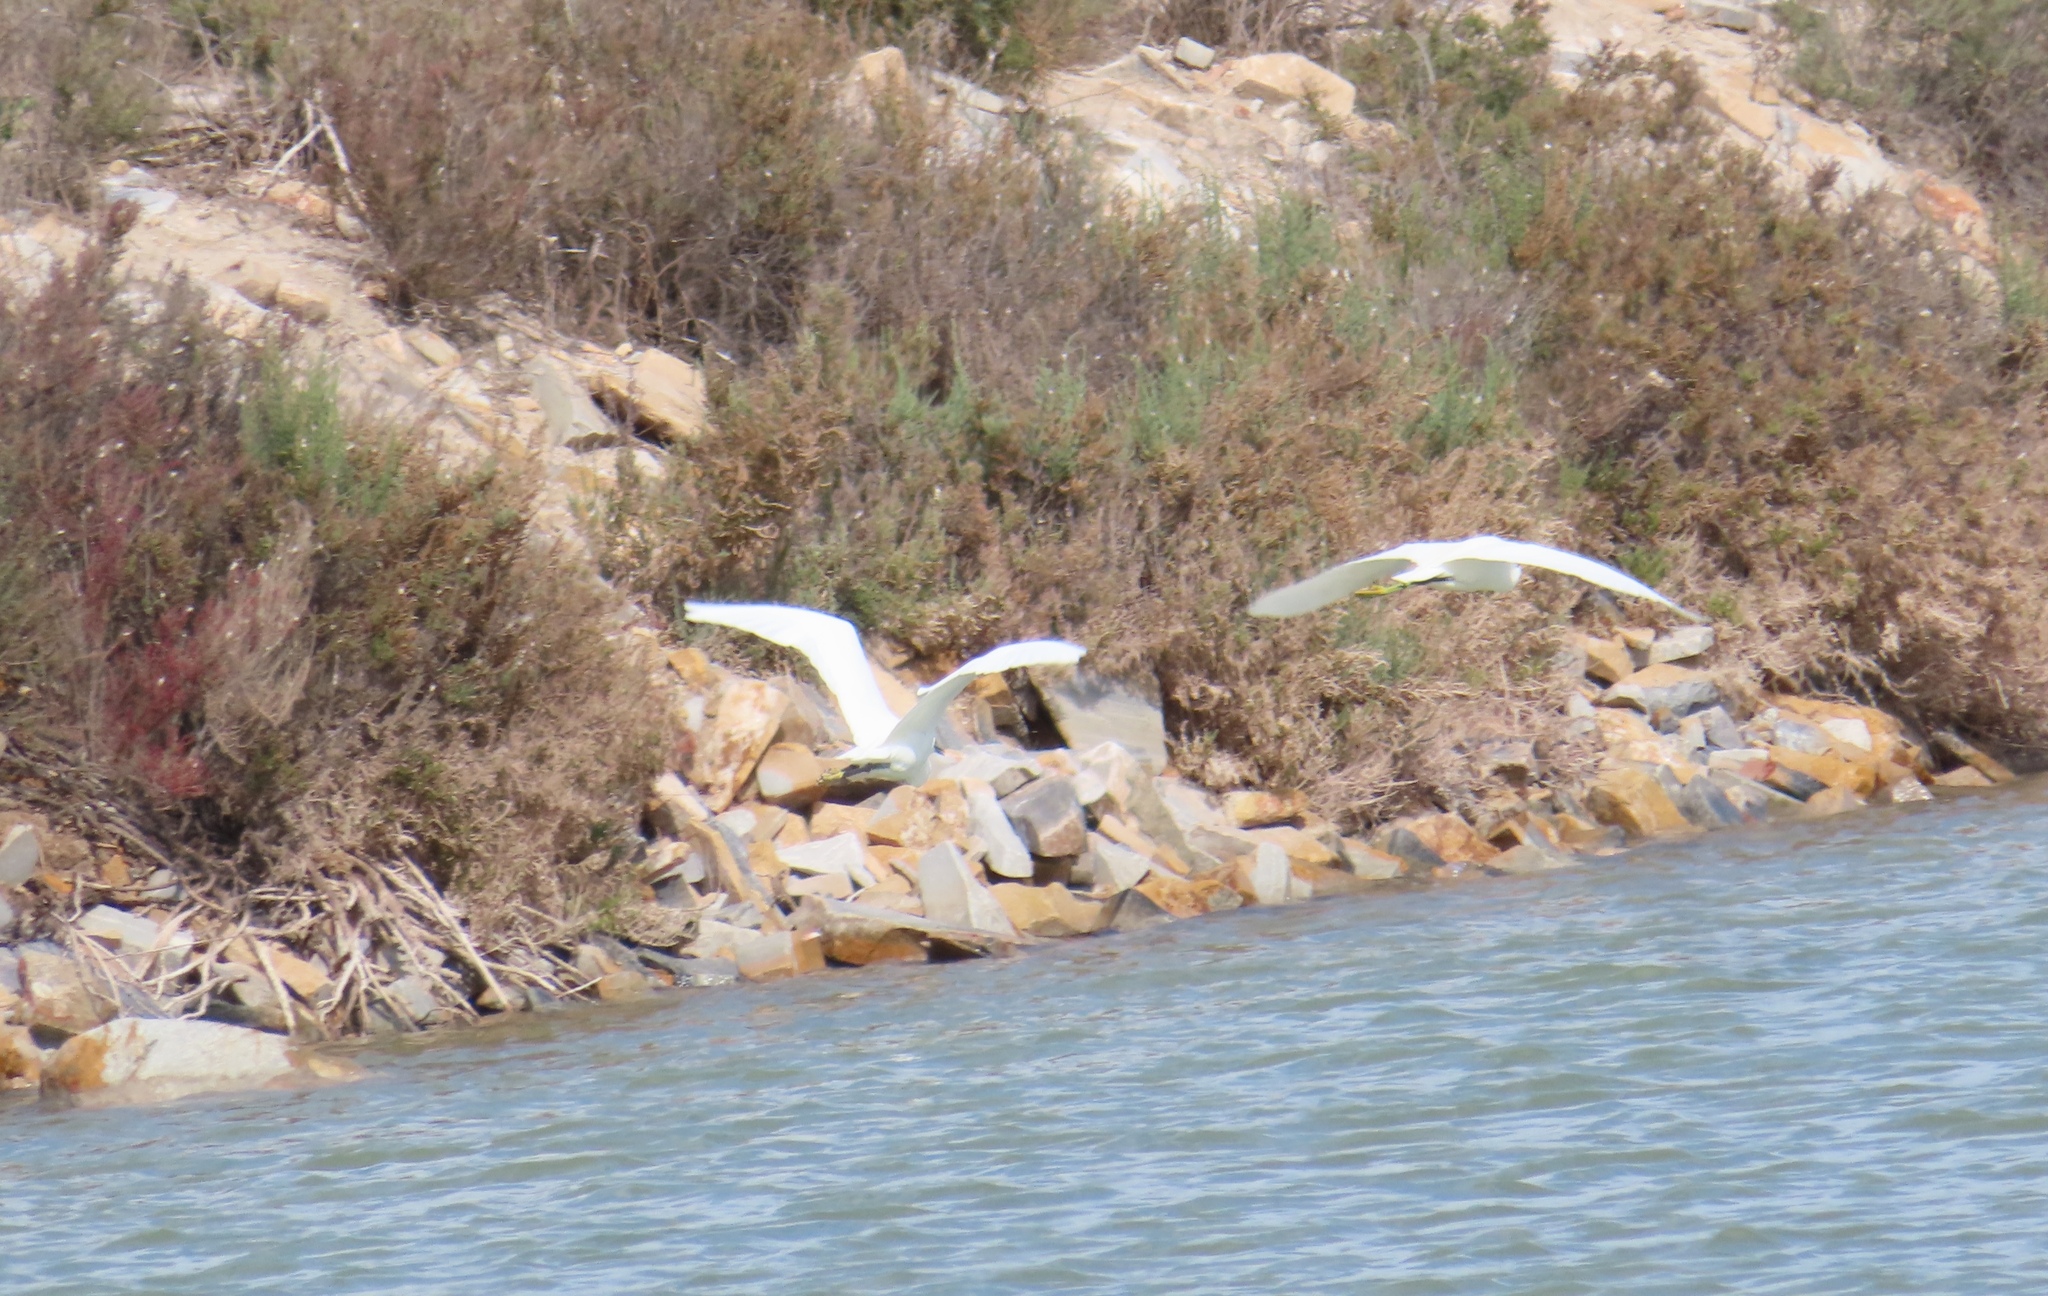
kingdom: Animalia
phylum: Chordata
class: Aves
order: Pelecaniformes
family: Ardeidae
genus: Egretta
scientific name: Egretta garzetta
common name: Little egret
